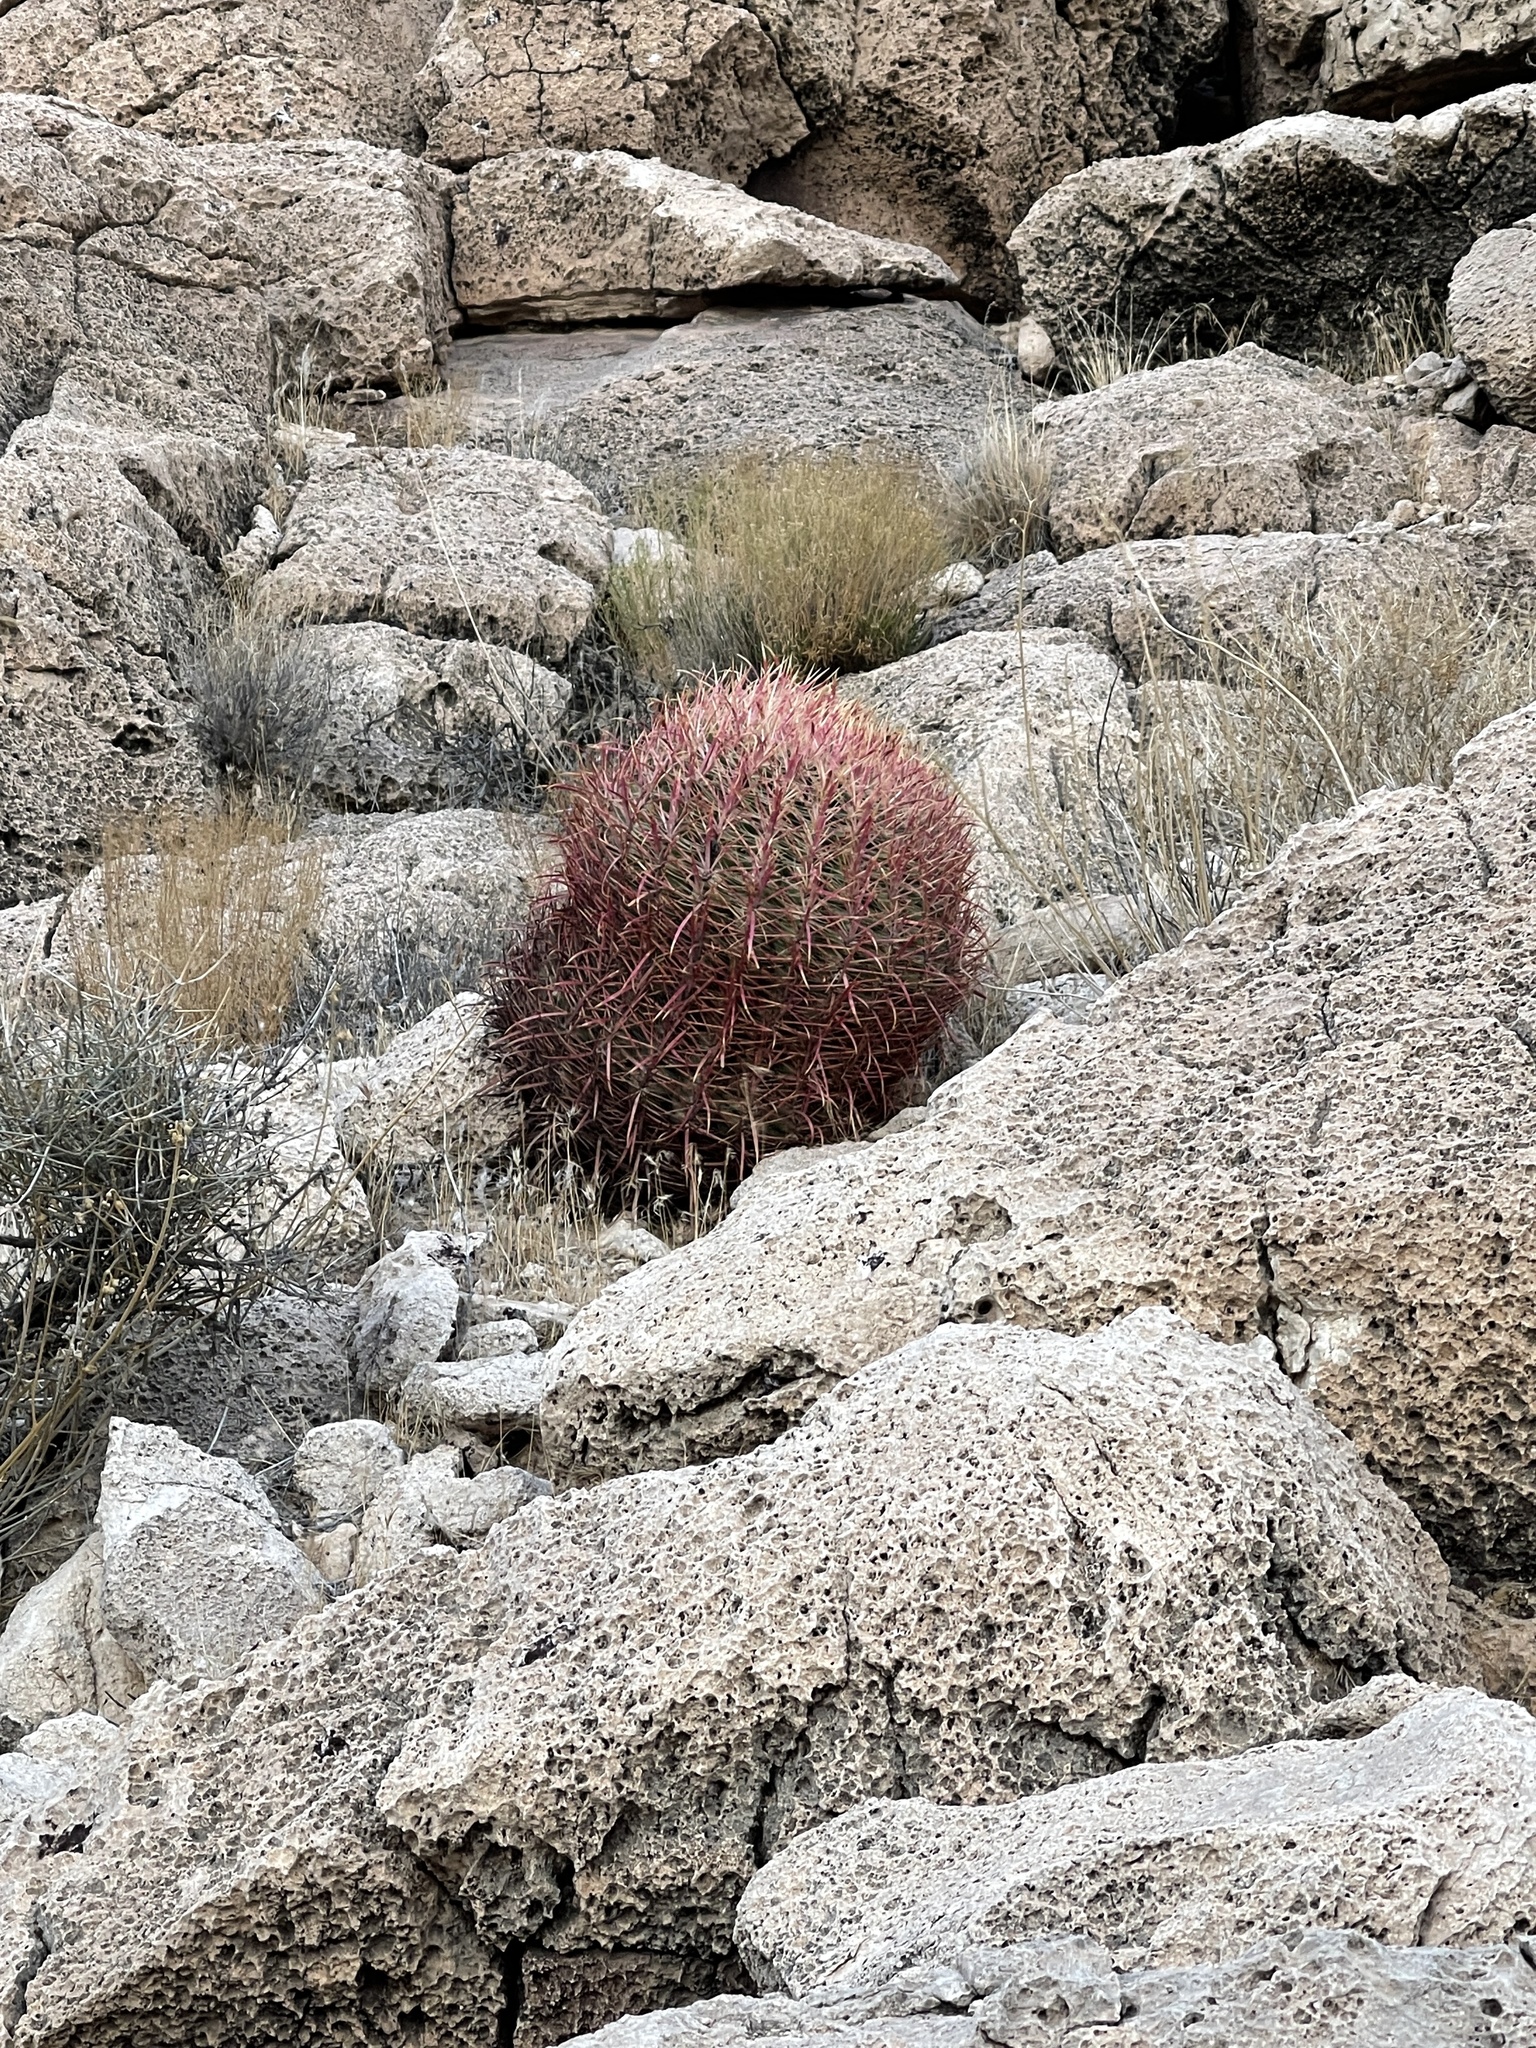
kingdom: Plantae
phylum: Tracheophyta
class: Magnoliopsida
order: Caryophyllales
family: Cactaceae
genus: Ferocactus
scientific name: Ferocactus cylindraceus
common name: California barrel cactus
